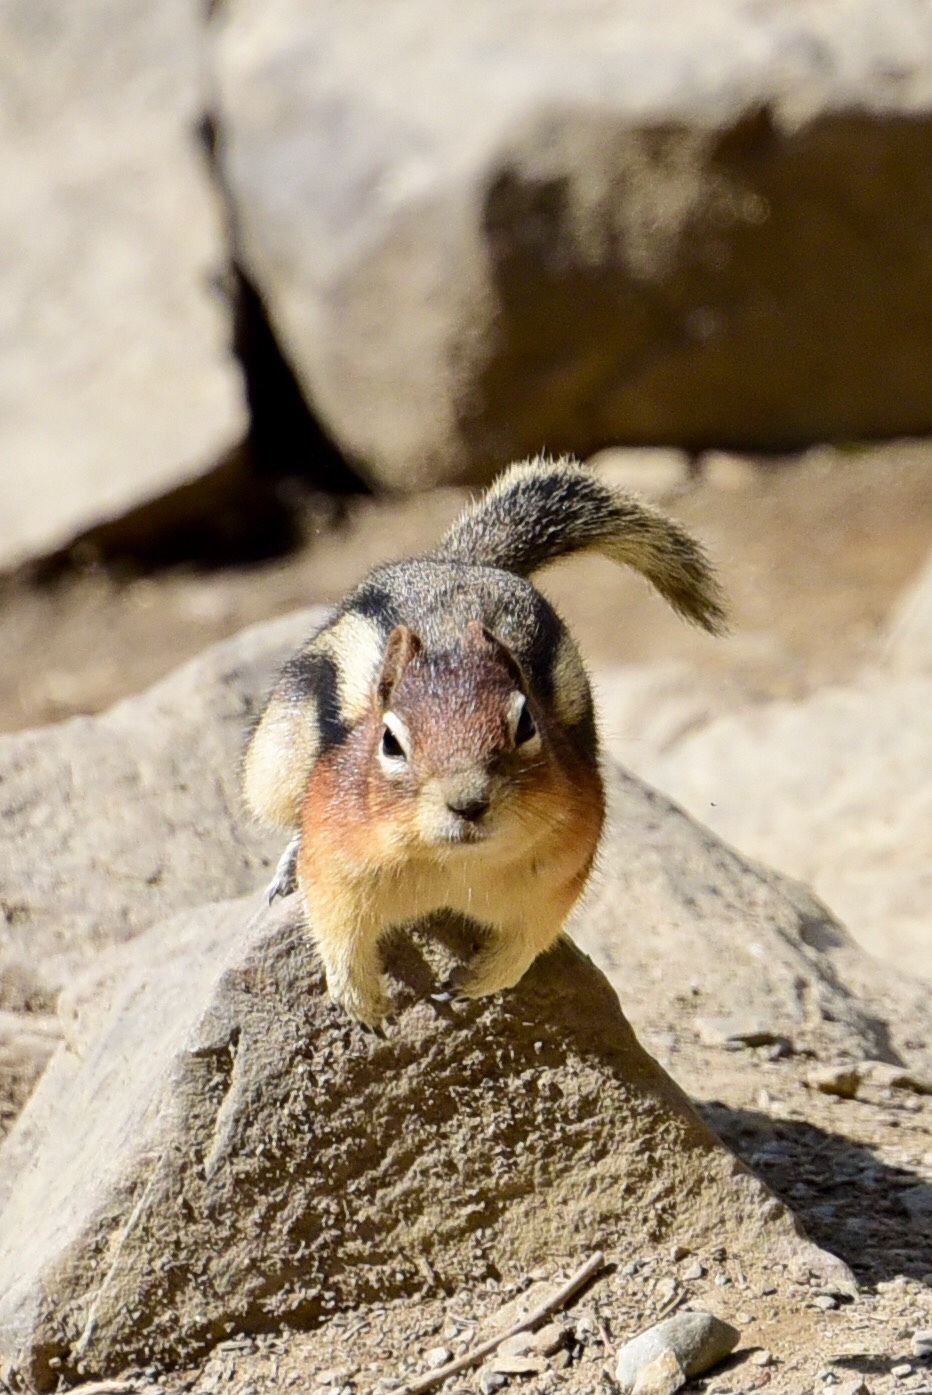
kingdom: Animalia
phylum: Chordata
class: Mammalia
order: Rodentia
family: Sciuridae
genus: Callospermophilus
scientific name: Callospermophilus lateralis
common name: Golden-mantled ground squirrel
